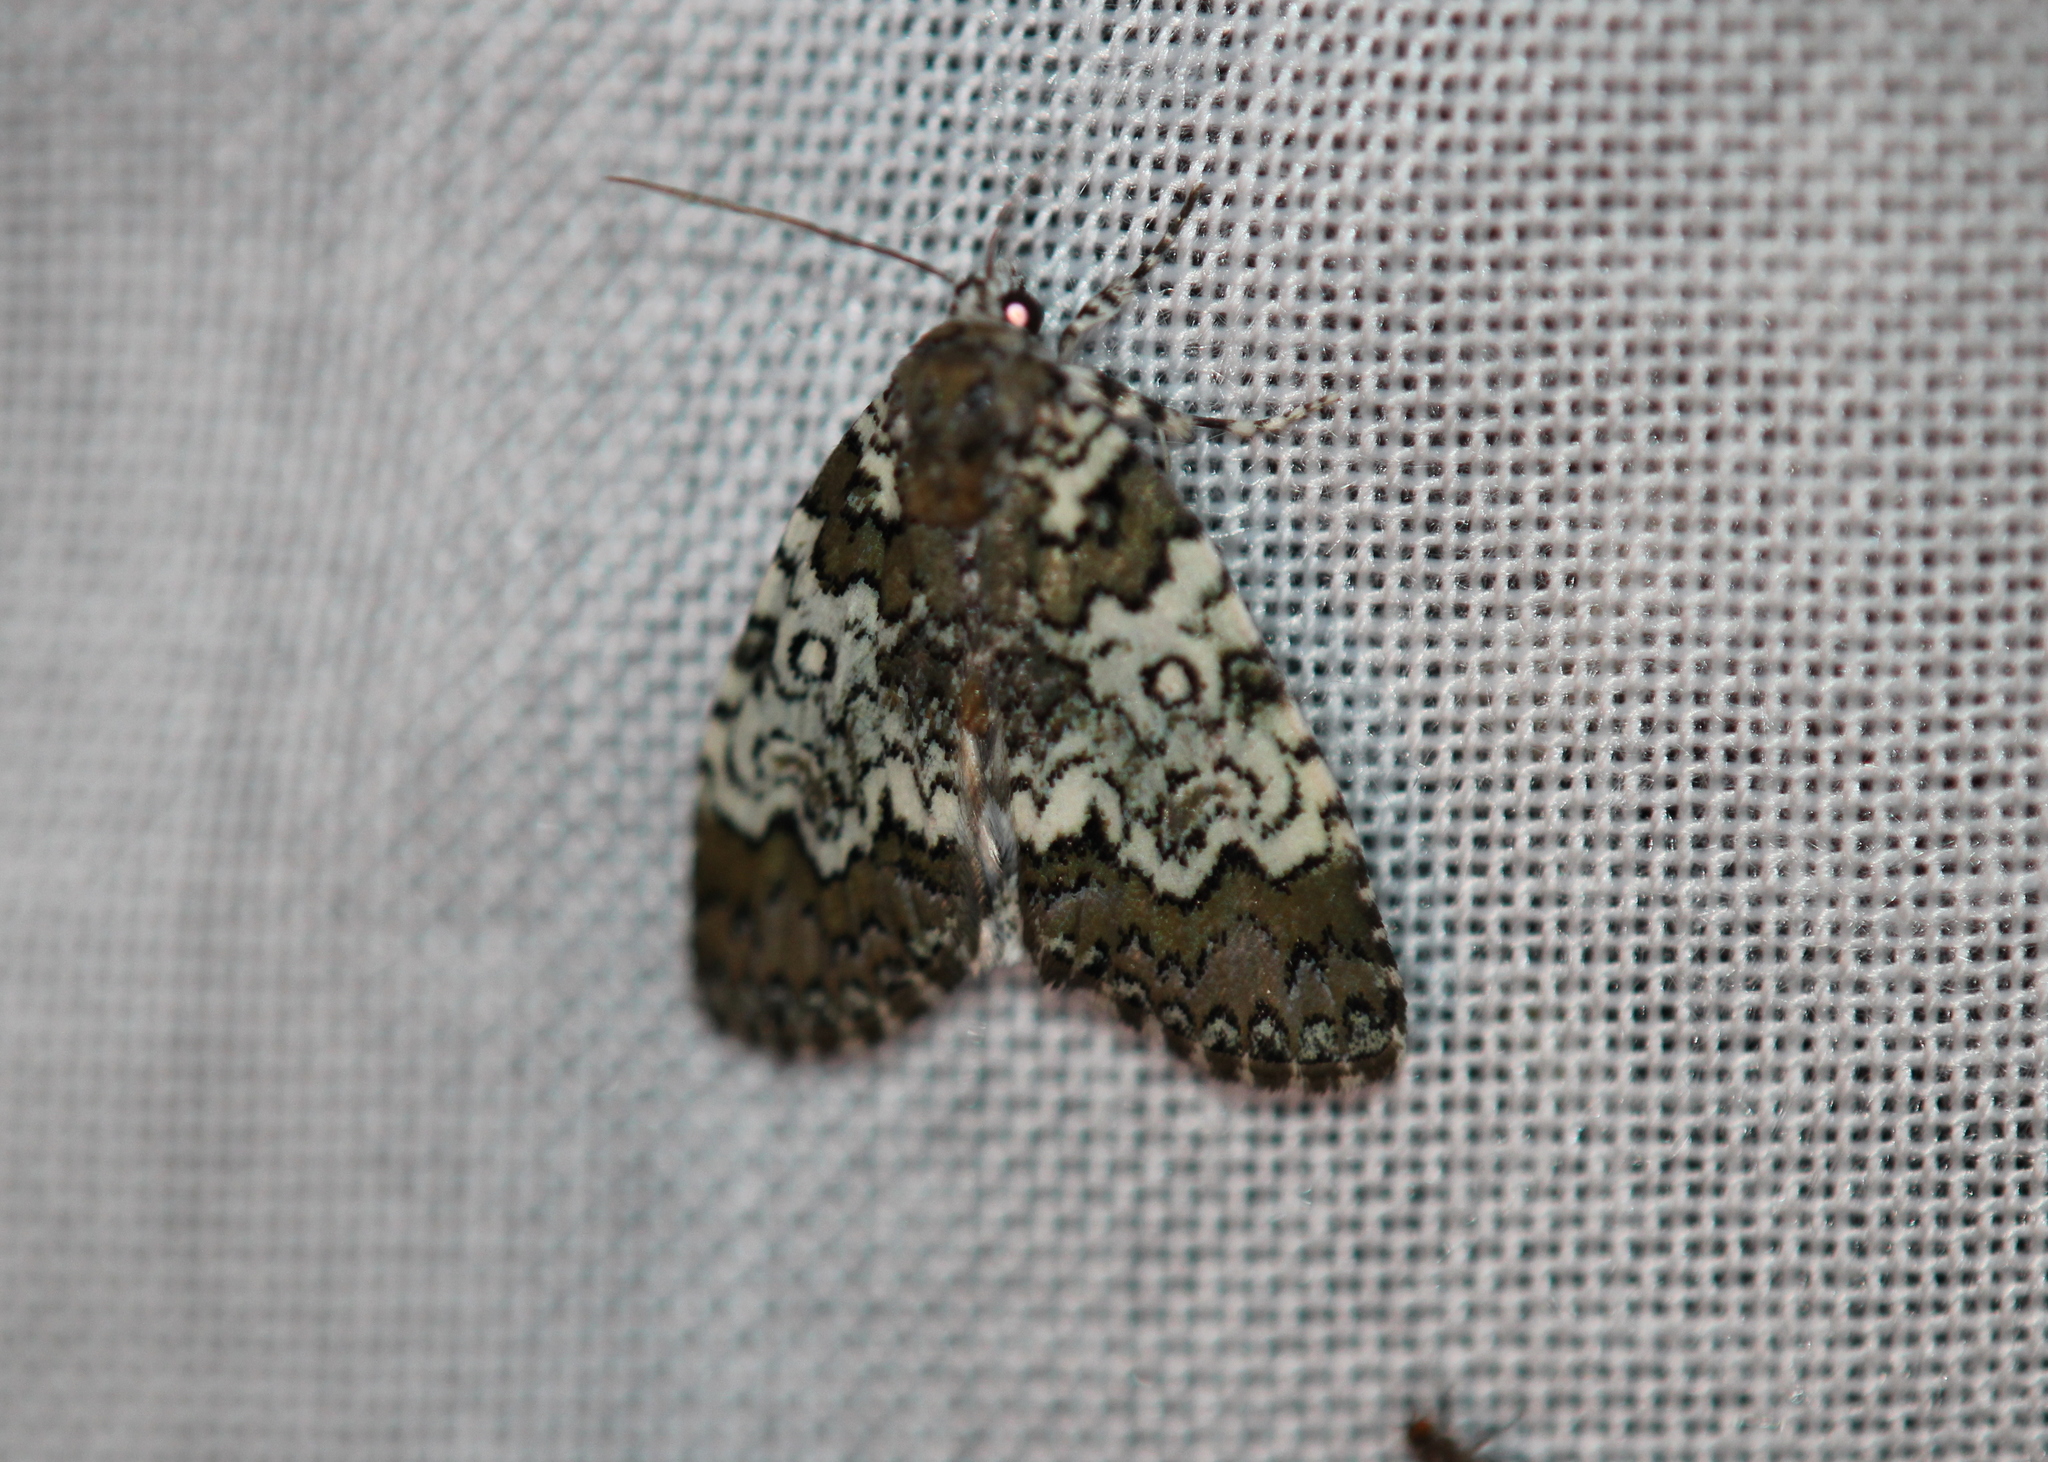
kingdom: Animalia
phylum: Arthropoda
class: Insecta
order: Lepidoptera
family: Noctuidae
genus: Cerma
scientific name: Cerma cora
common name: Bird dropping moth
